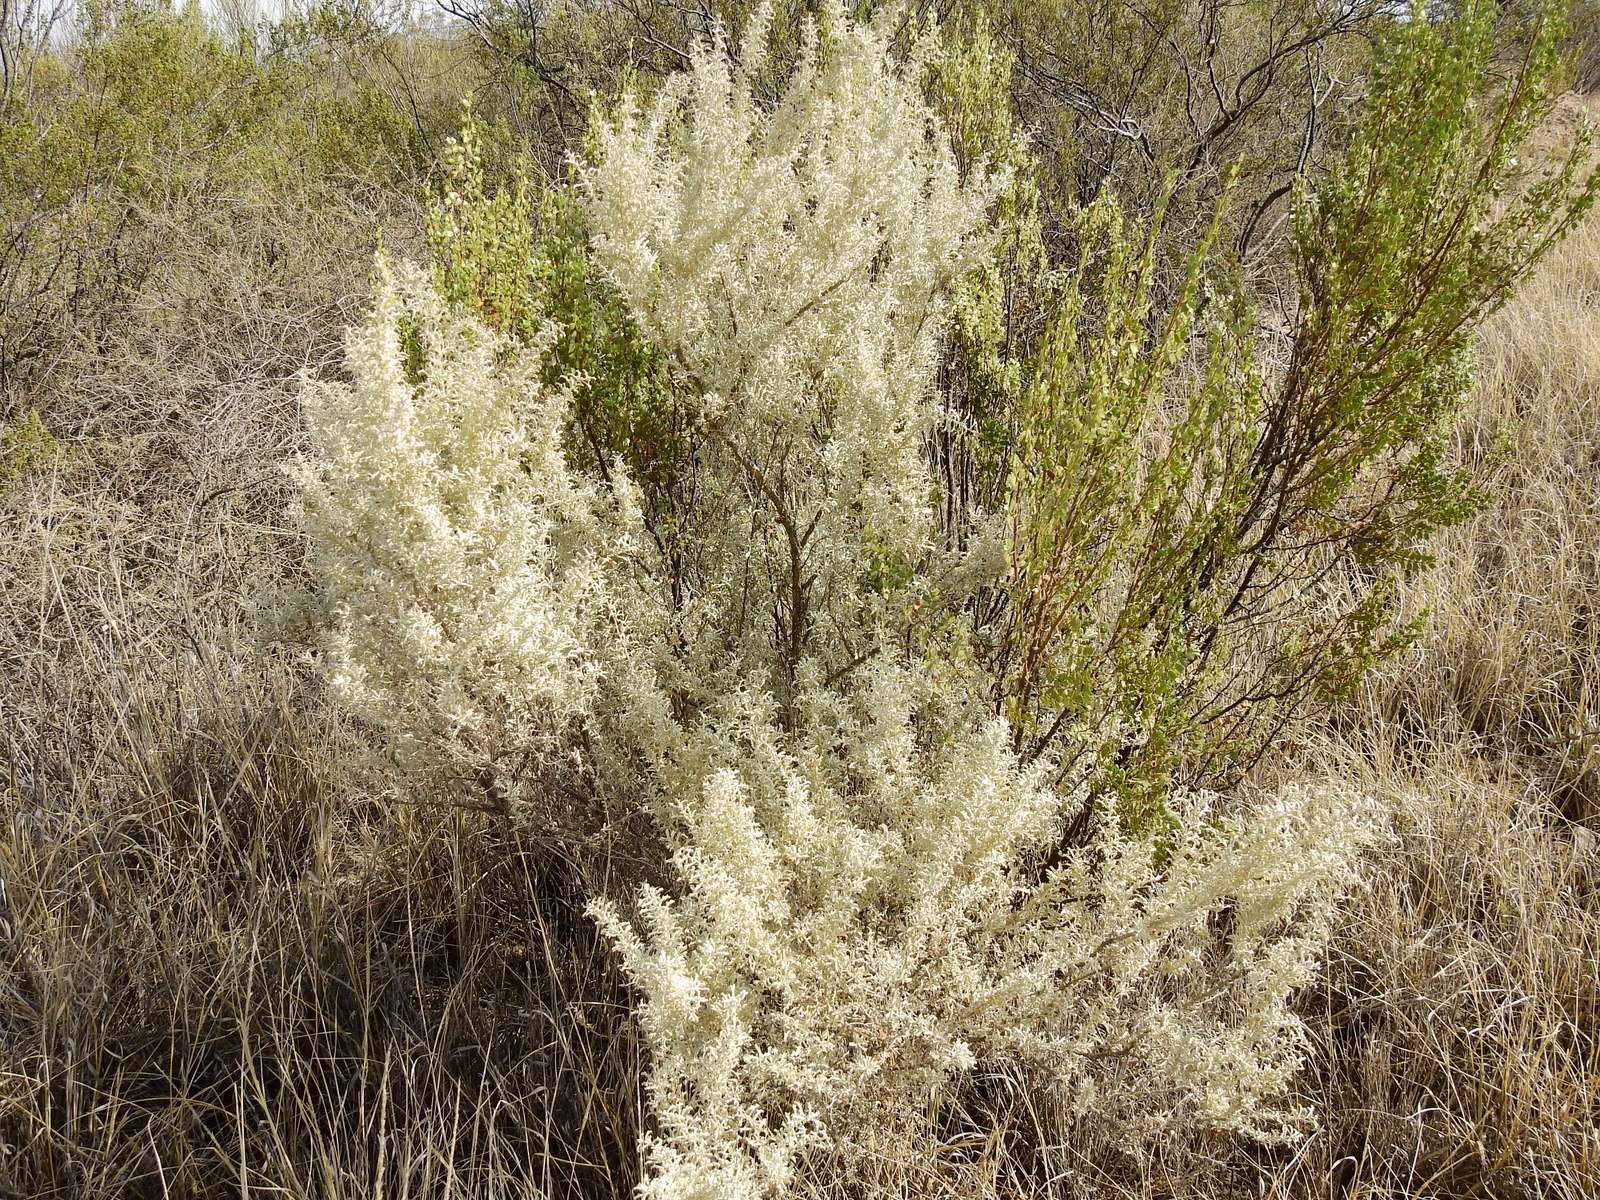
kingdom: Plantae
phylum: Tracheophyta
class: Magnoliopsida
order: Caryophyllales
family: Amaranthaceae
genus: Atriplex
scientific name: Atriplex lampa
